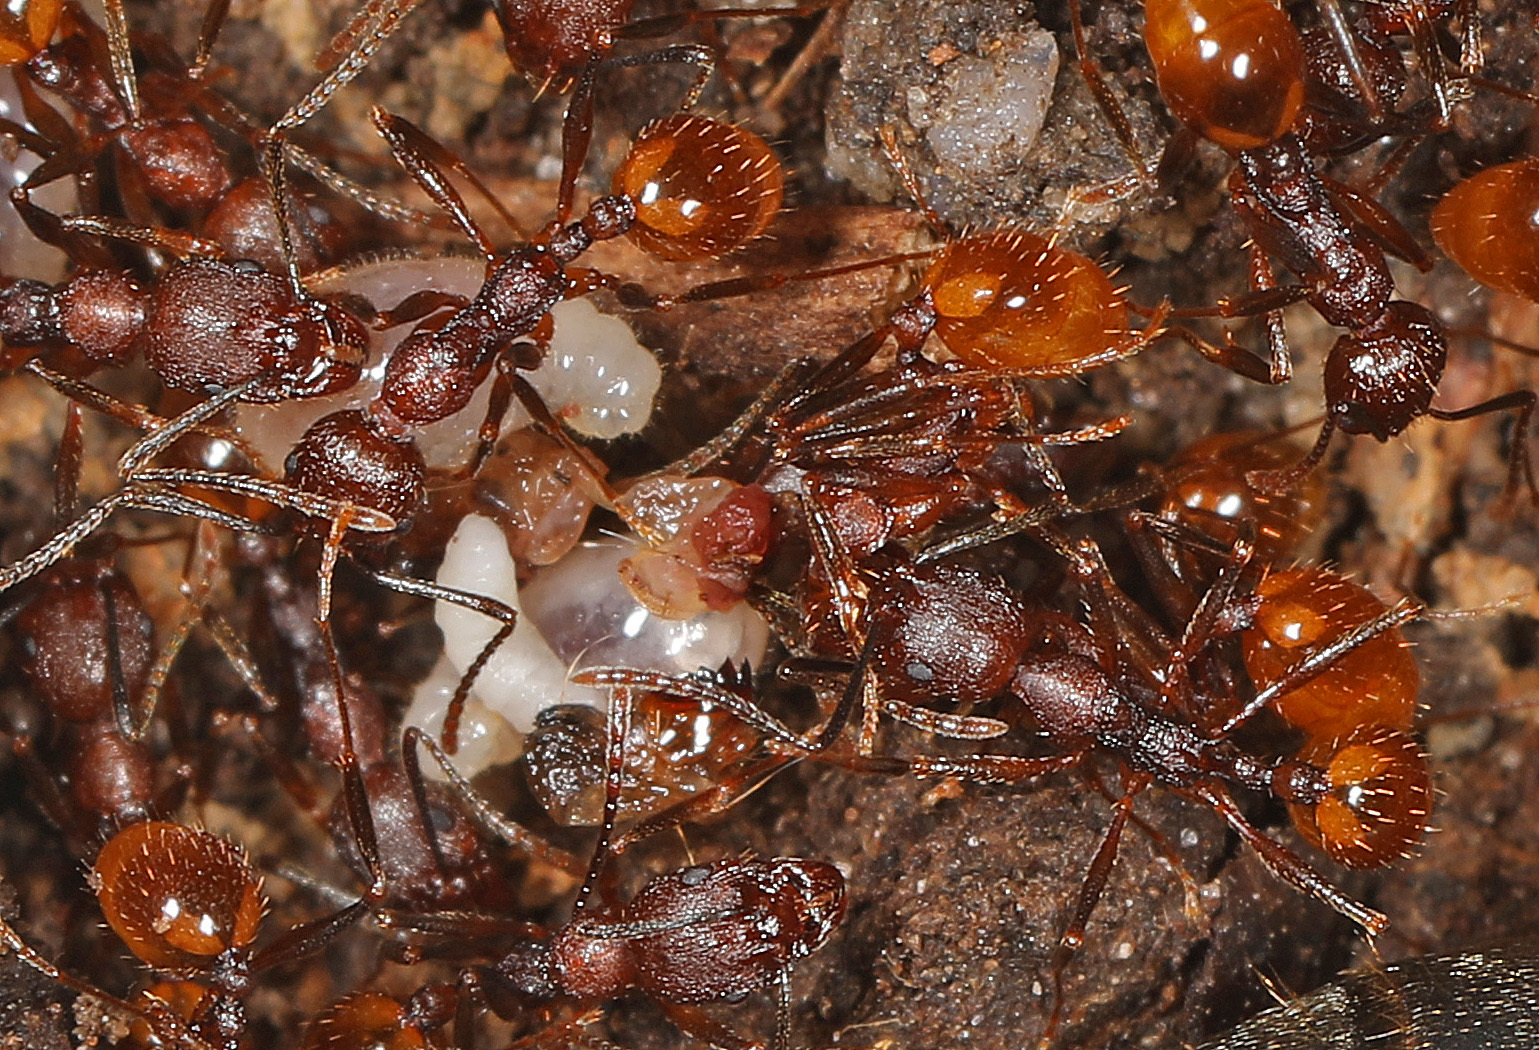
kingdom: Animalia
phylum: Arthropoda
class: Insecta
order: Hymenoptera
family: Formicidae
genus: Aphaenogaster
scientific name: Aphaenogaster fulva
